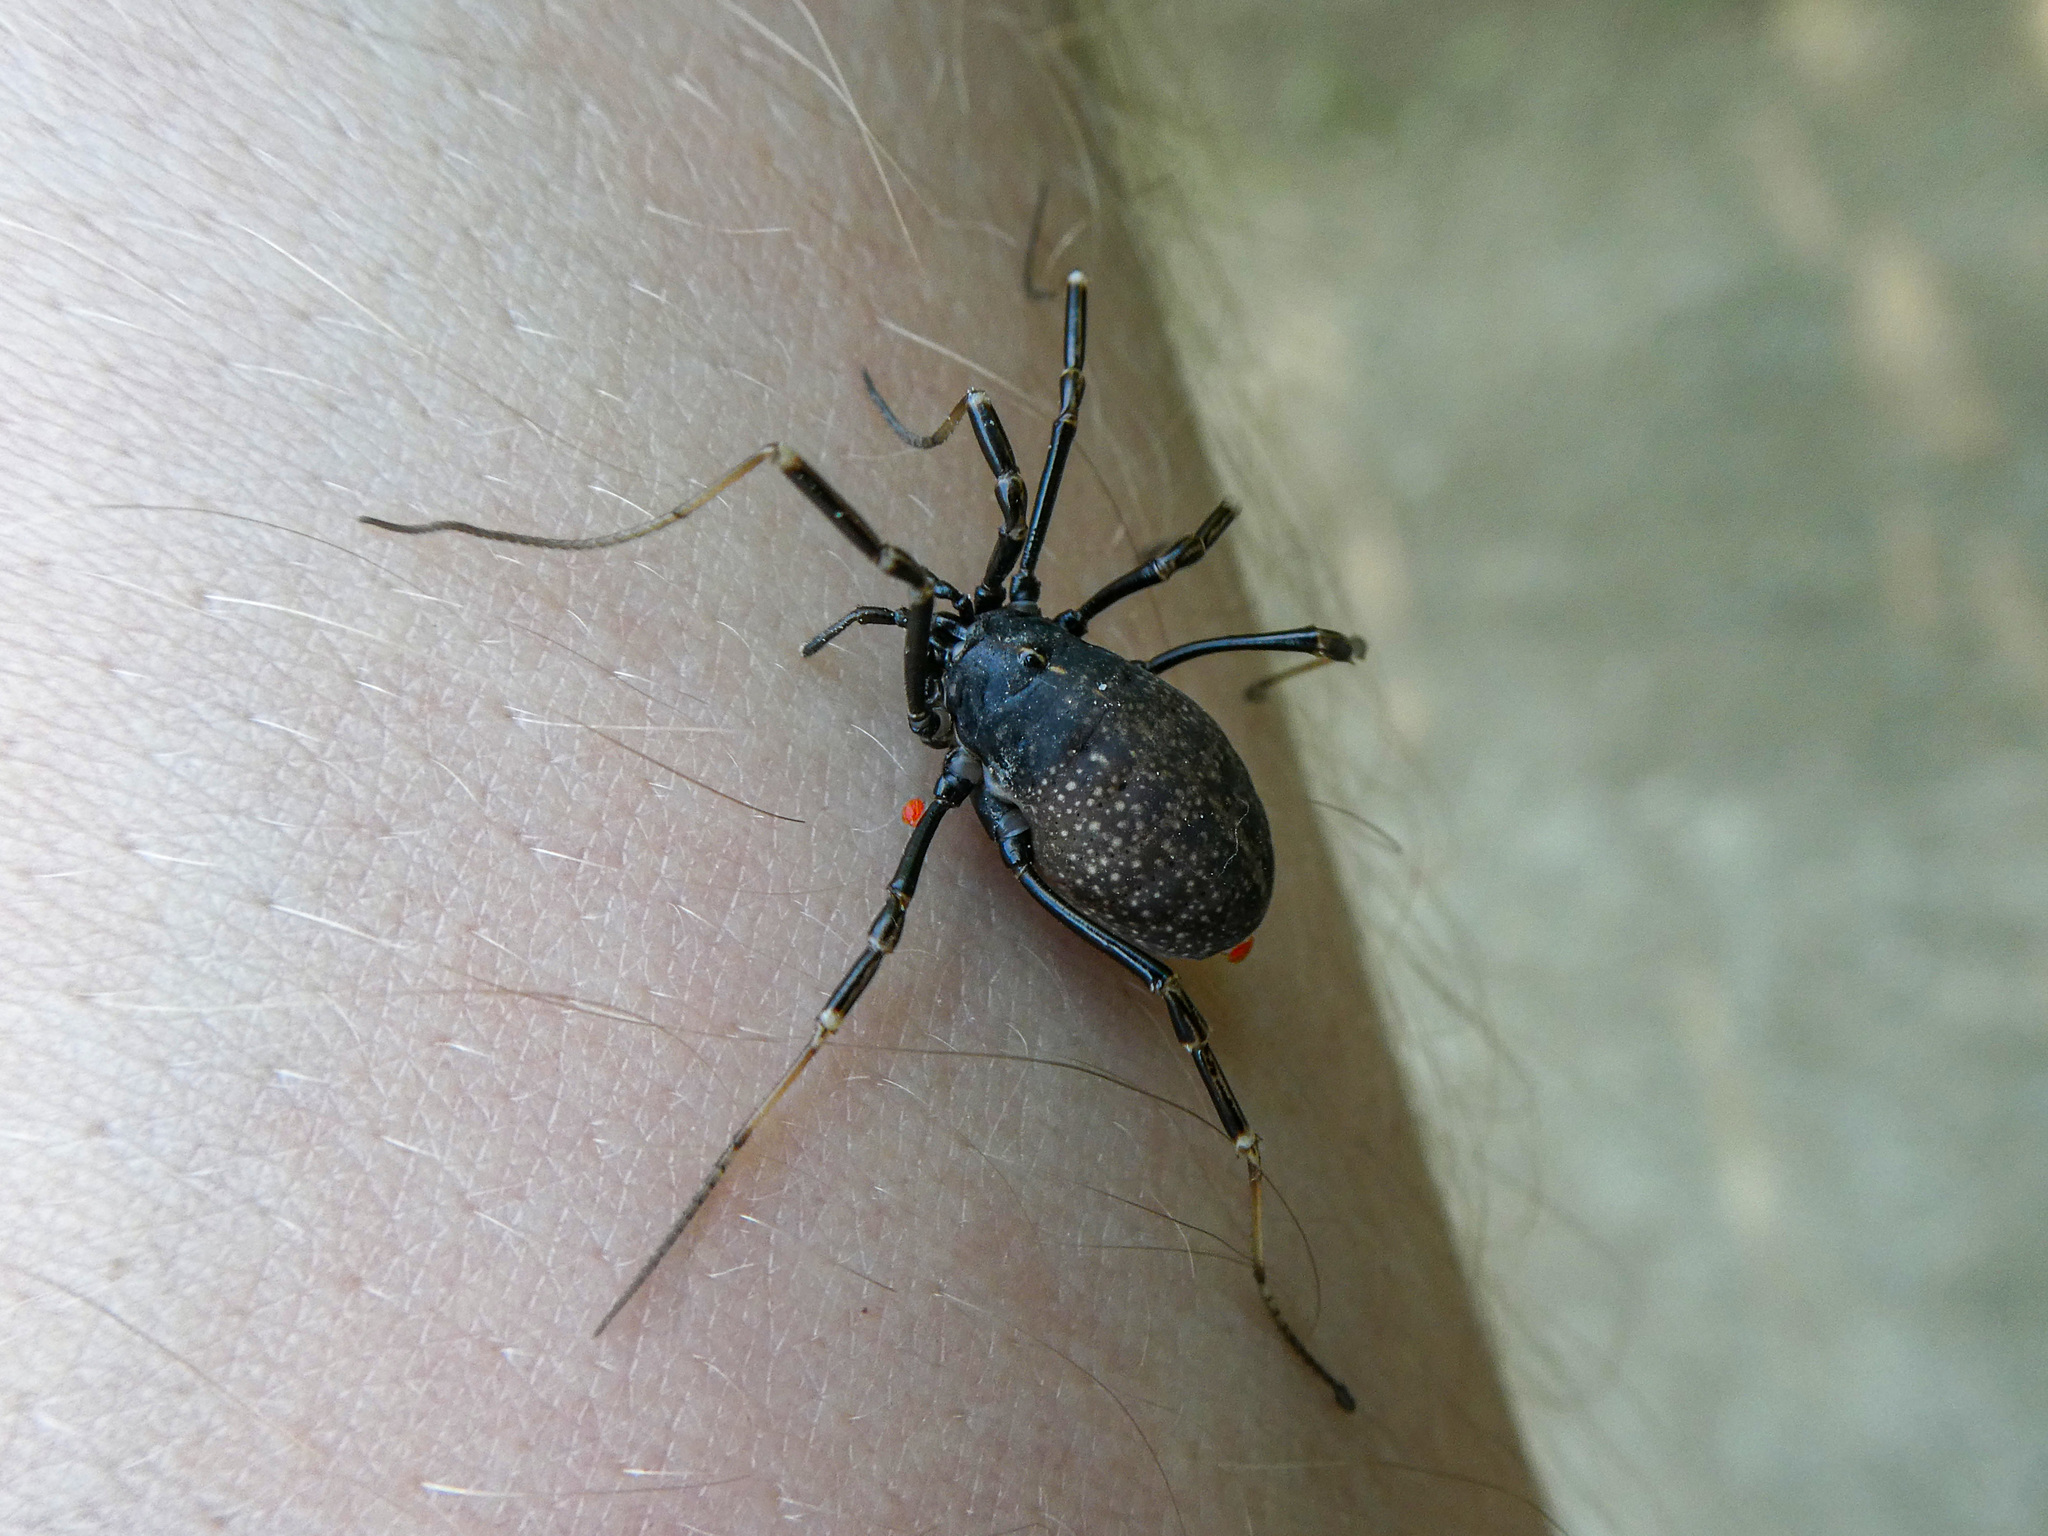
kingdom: Animalia
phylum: Arthropoda
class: Arachnida
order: Opiliones
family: Phalangiidae
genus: Egaenus
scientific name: Egaenus convexus
